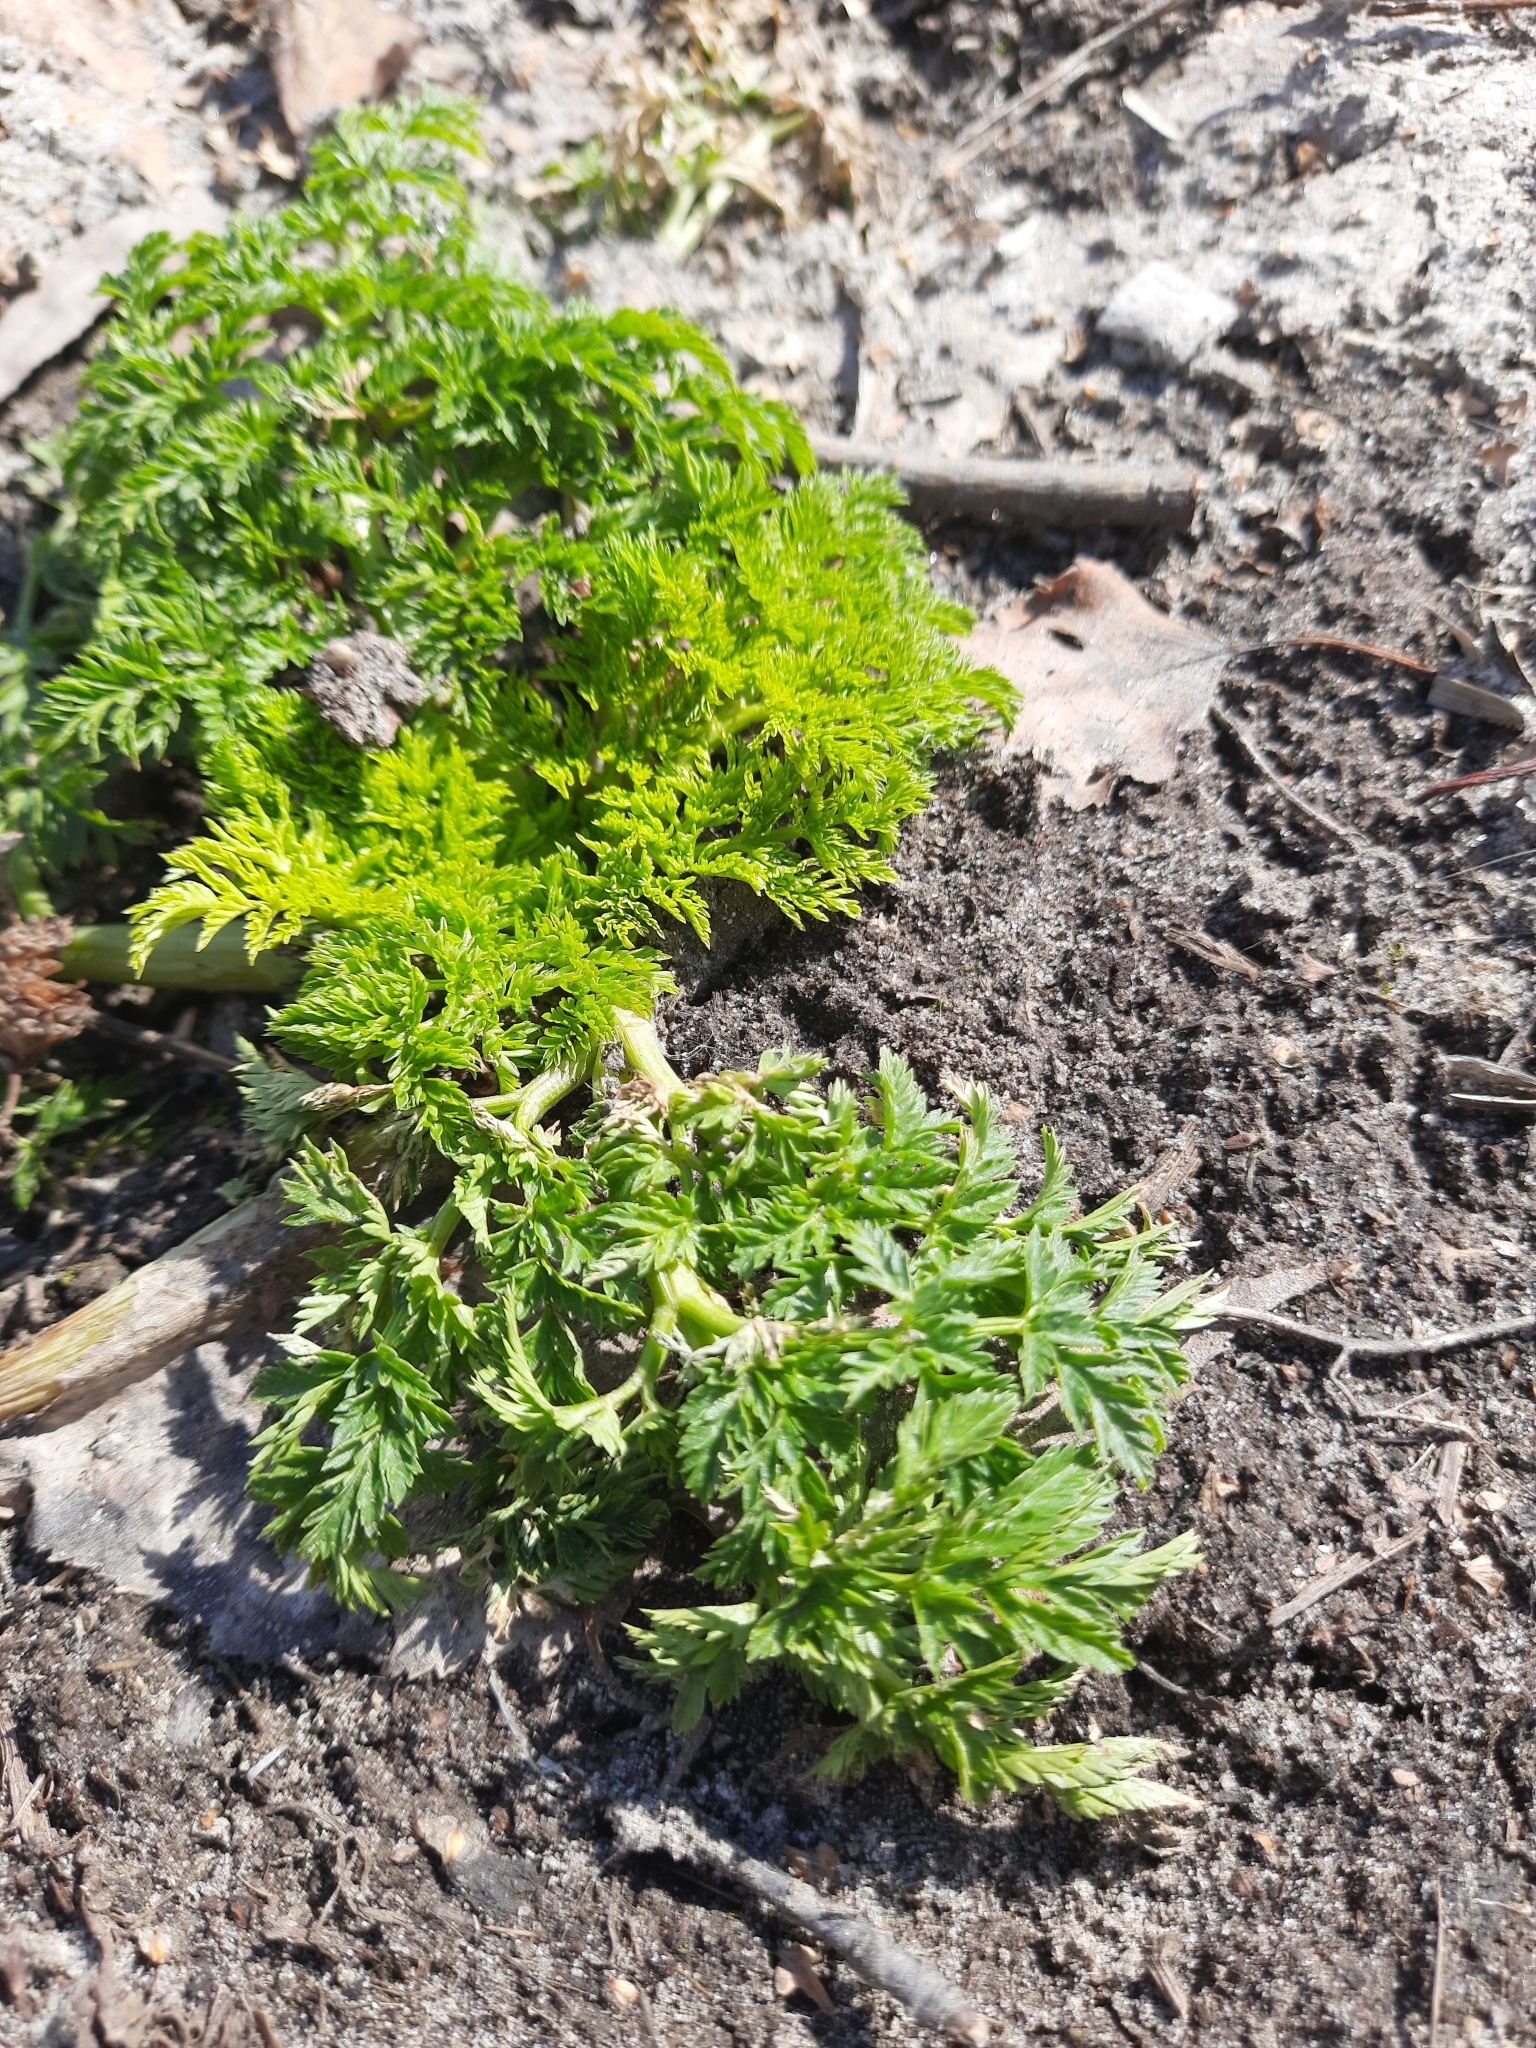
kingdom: Plantae
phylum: Tracheophyta
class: Magnoliopsida
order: Apiales
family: Apiaceae
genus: Anthriscus
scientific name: Anthriscus sylvestris
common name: Cow parsley
